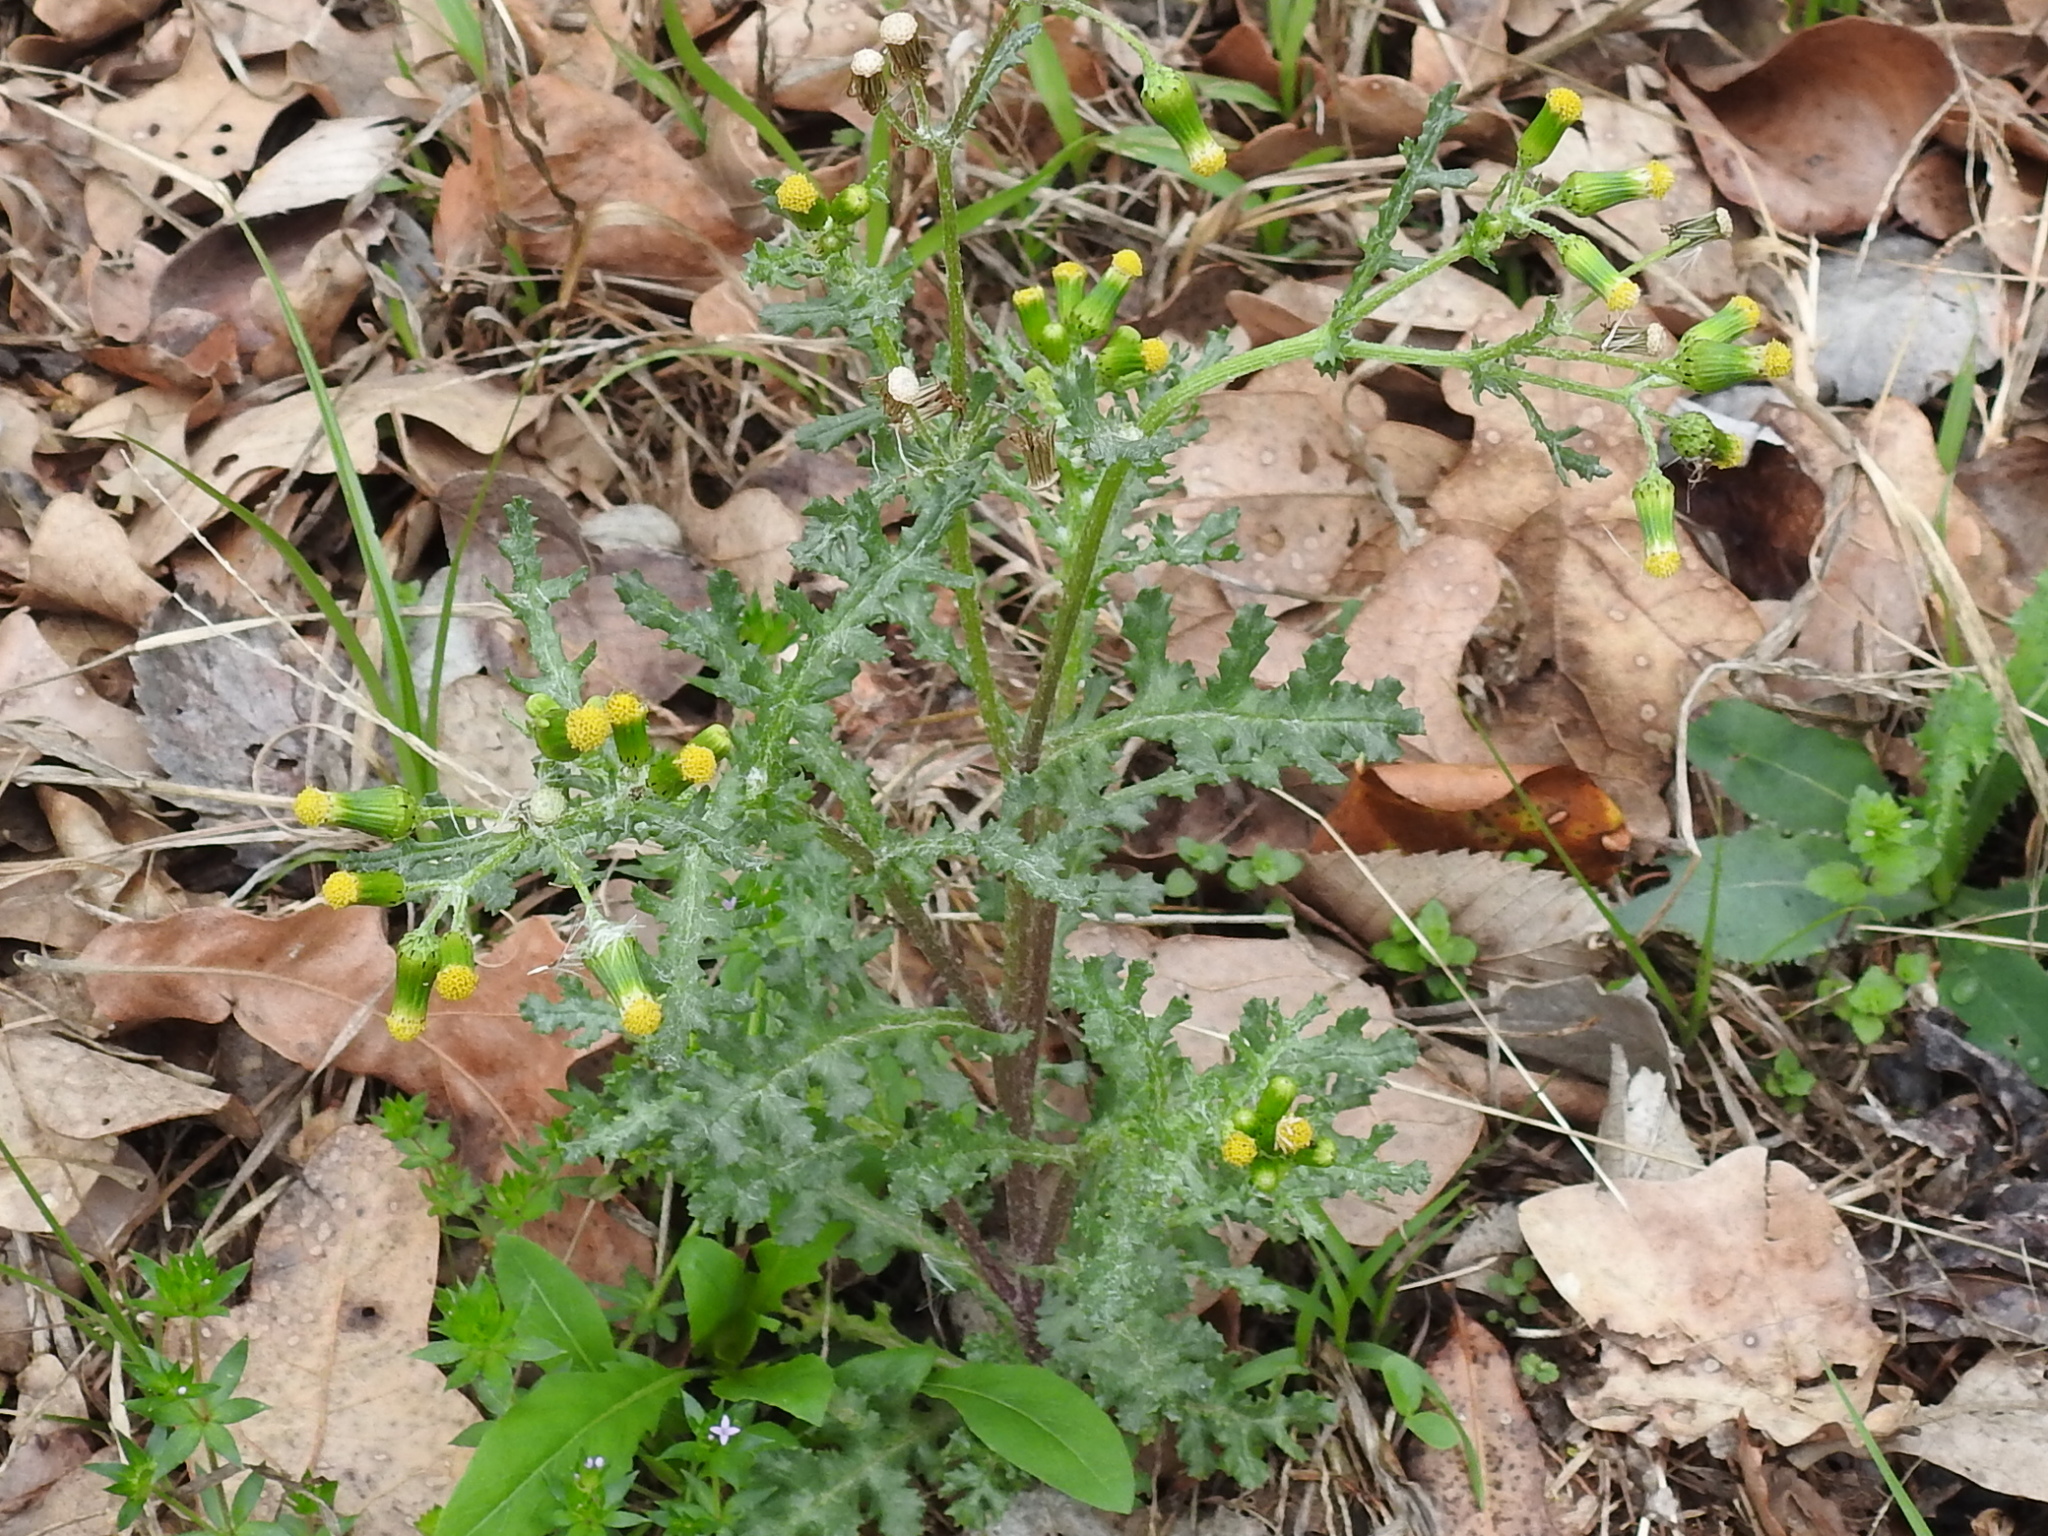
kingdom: Plantae
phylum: Tracheophyta
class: Magnoliopsida
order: Asterales
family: Asteraceae
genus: Senecio
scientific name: Senecio vulgaris
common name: Old-man-in-the-spring
